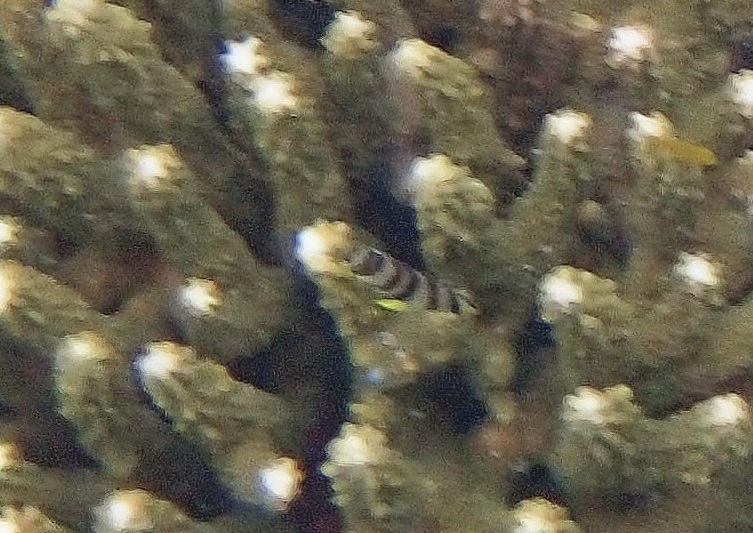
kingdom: Animalia
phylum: Chordata
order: Perciformes
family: Chaetodontidae
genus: Chaetodon
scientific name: Chaetodon octofasciatus
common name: Eightband butterflyfish
